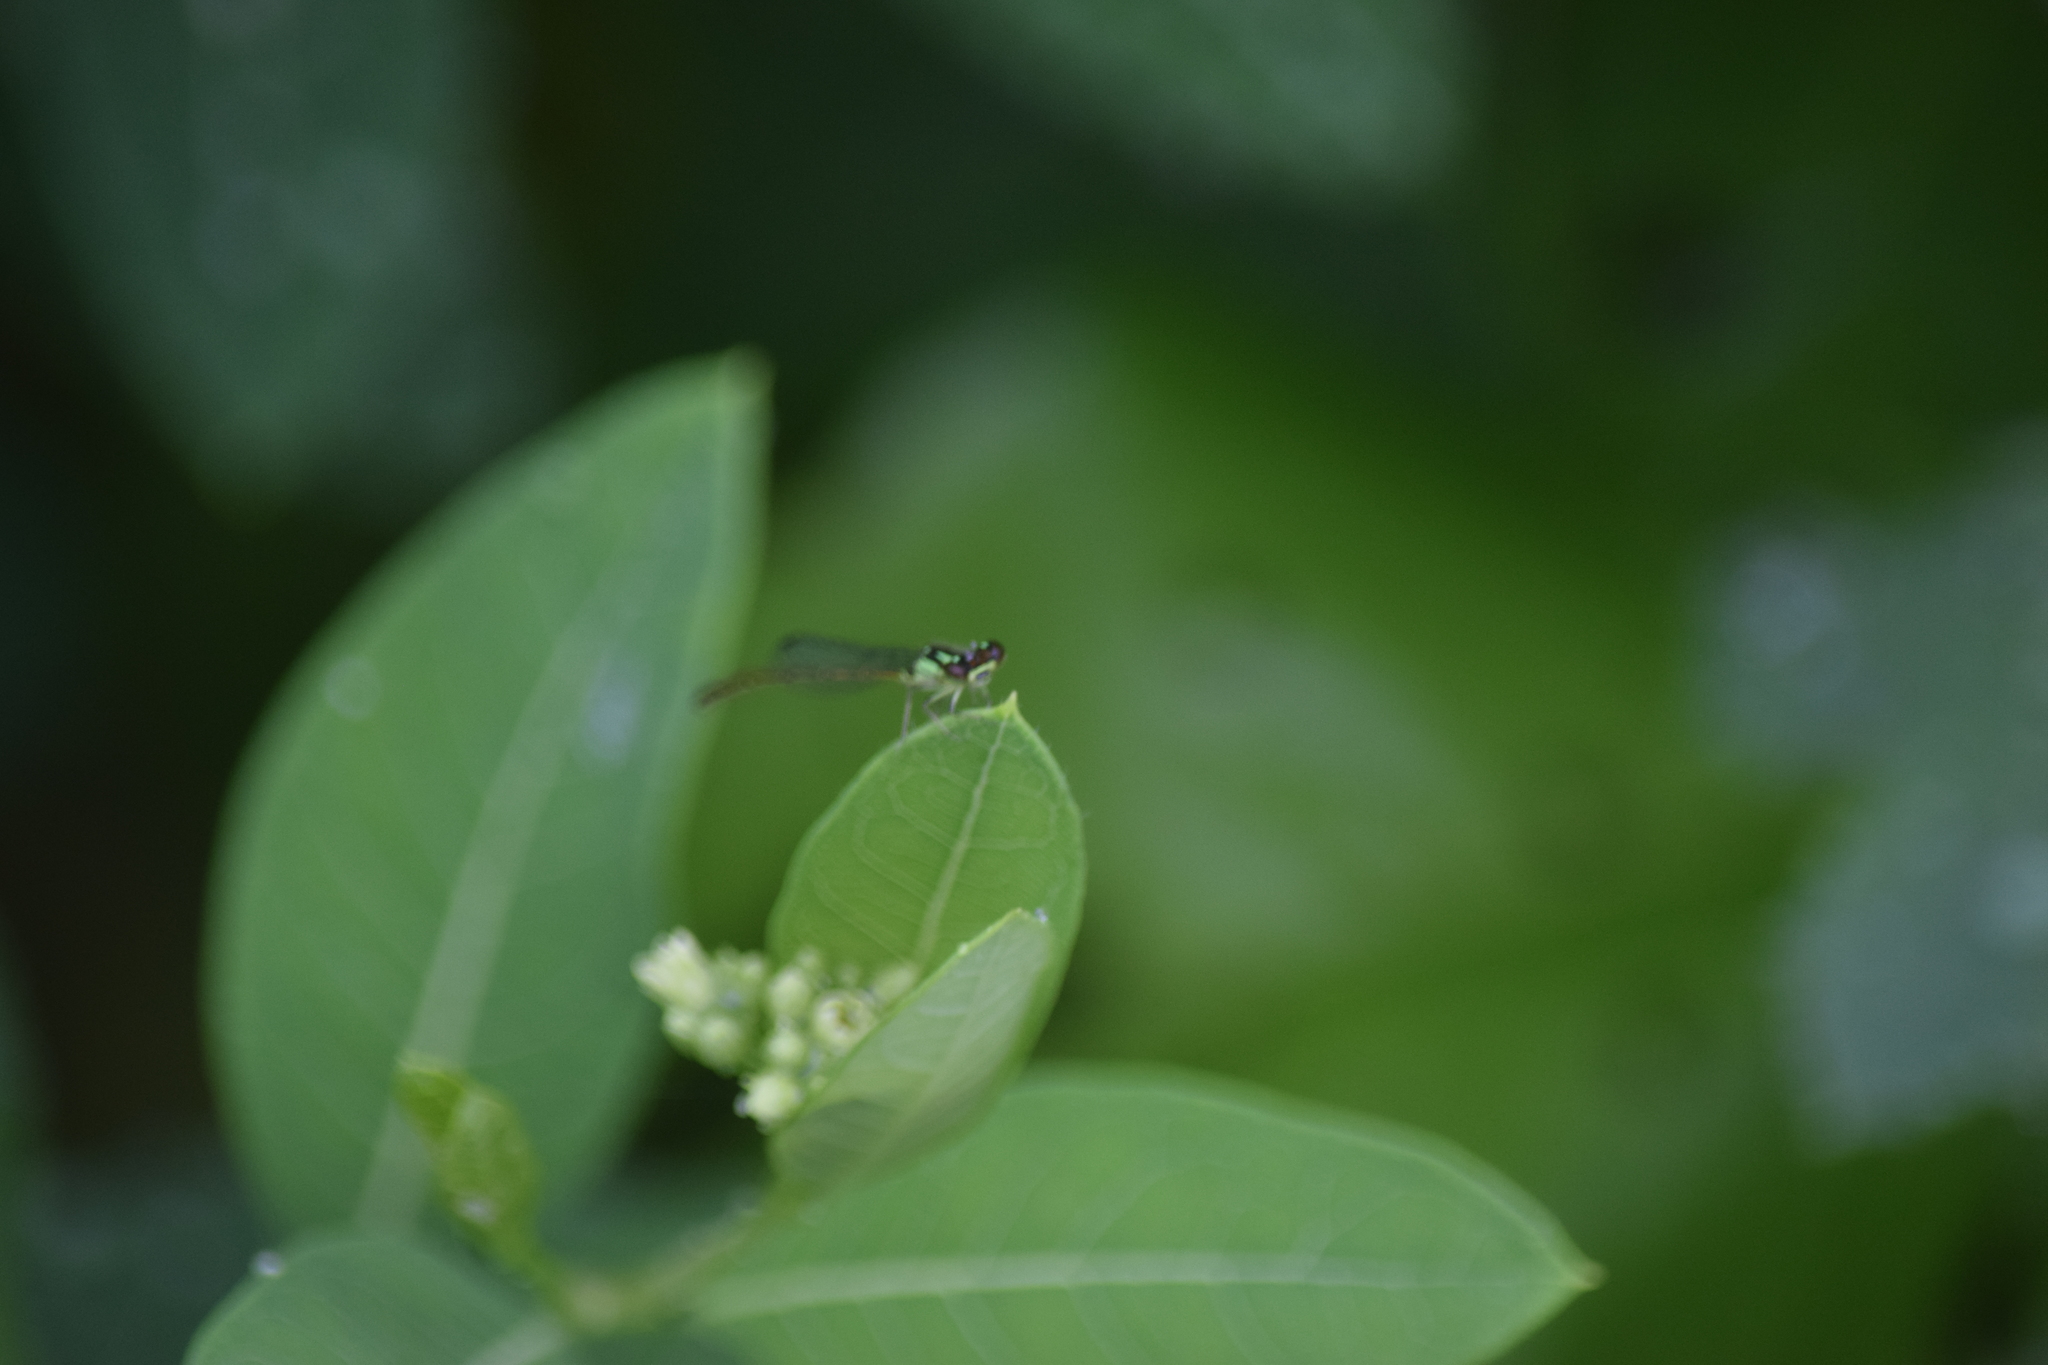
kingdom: Animalia
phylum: Arthropoda
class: Insecta
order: Odonata
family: Coenagrionidae
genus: Ischnura
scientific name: Ischnura posita
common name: Fragile forktail
